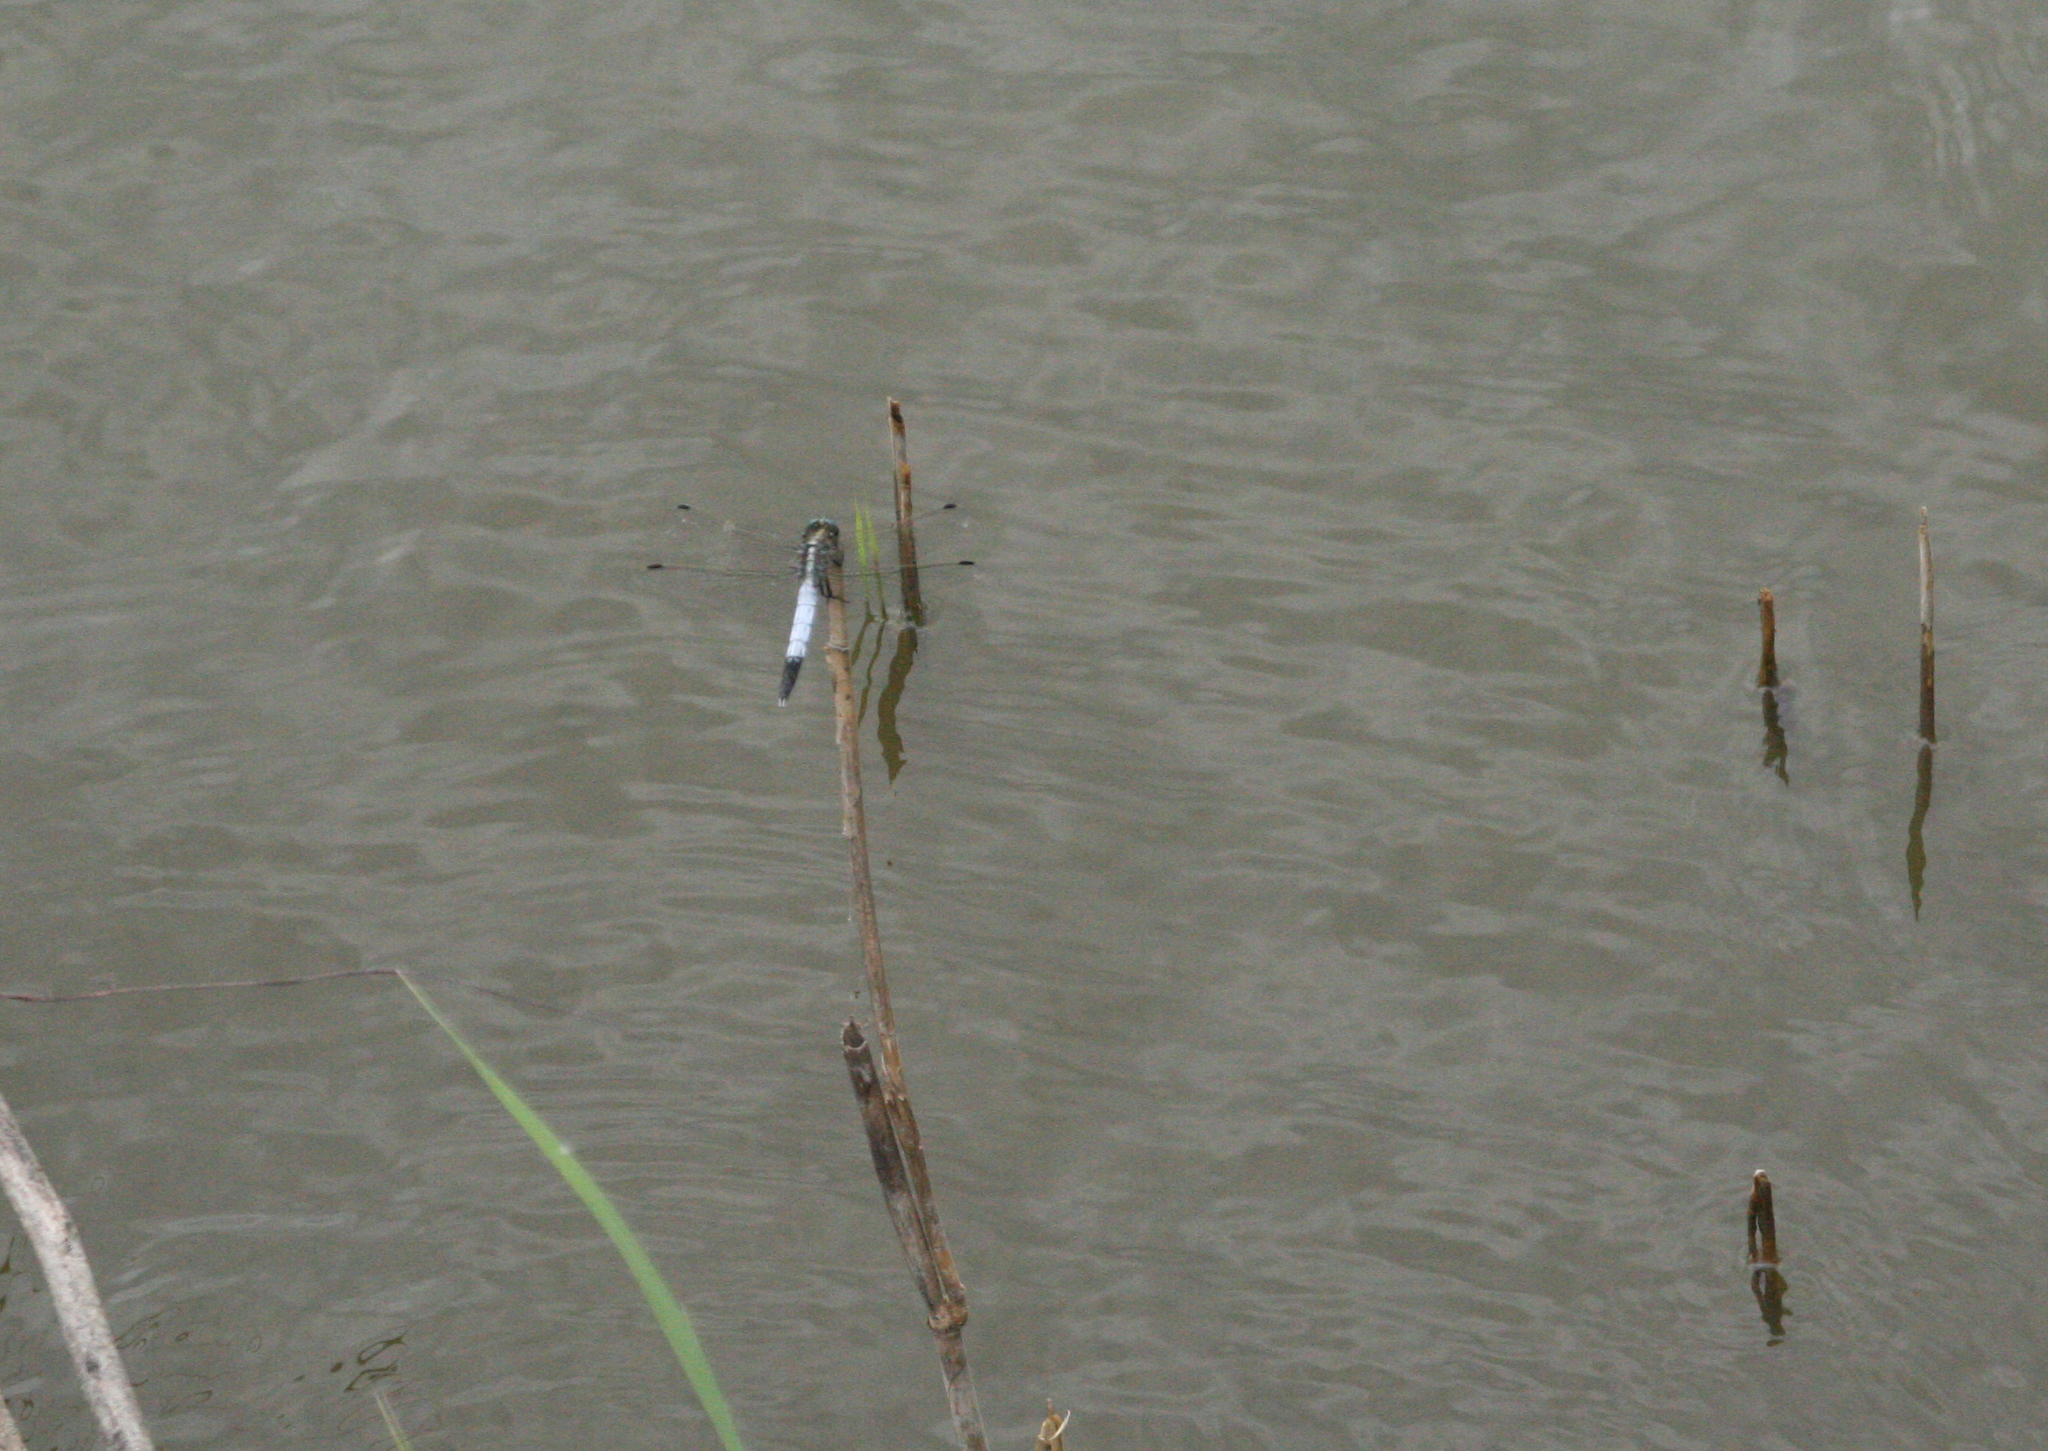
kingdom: Animalia
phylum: Arthropoda
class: Insecta
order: Odonata
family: Libellulidae
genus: Orthetrum
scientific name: Orthetrum albistylum
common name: White-tailed skimmer
